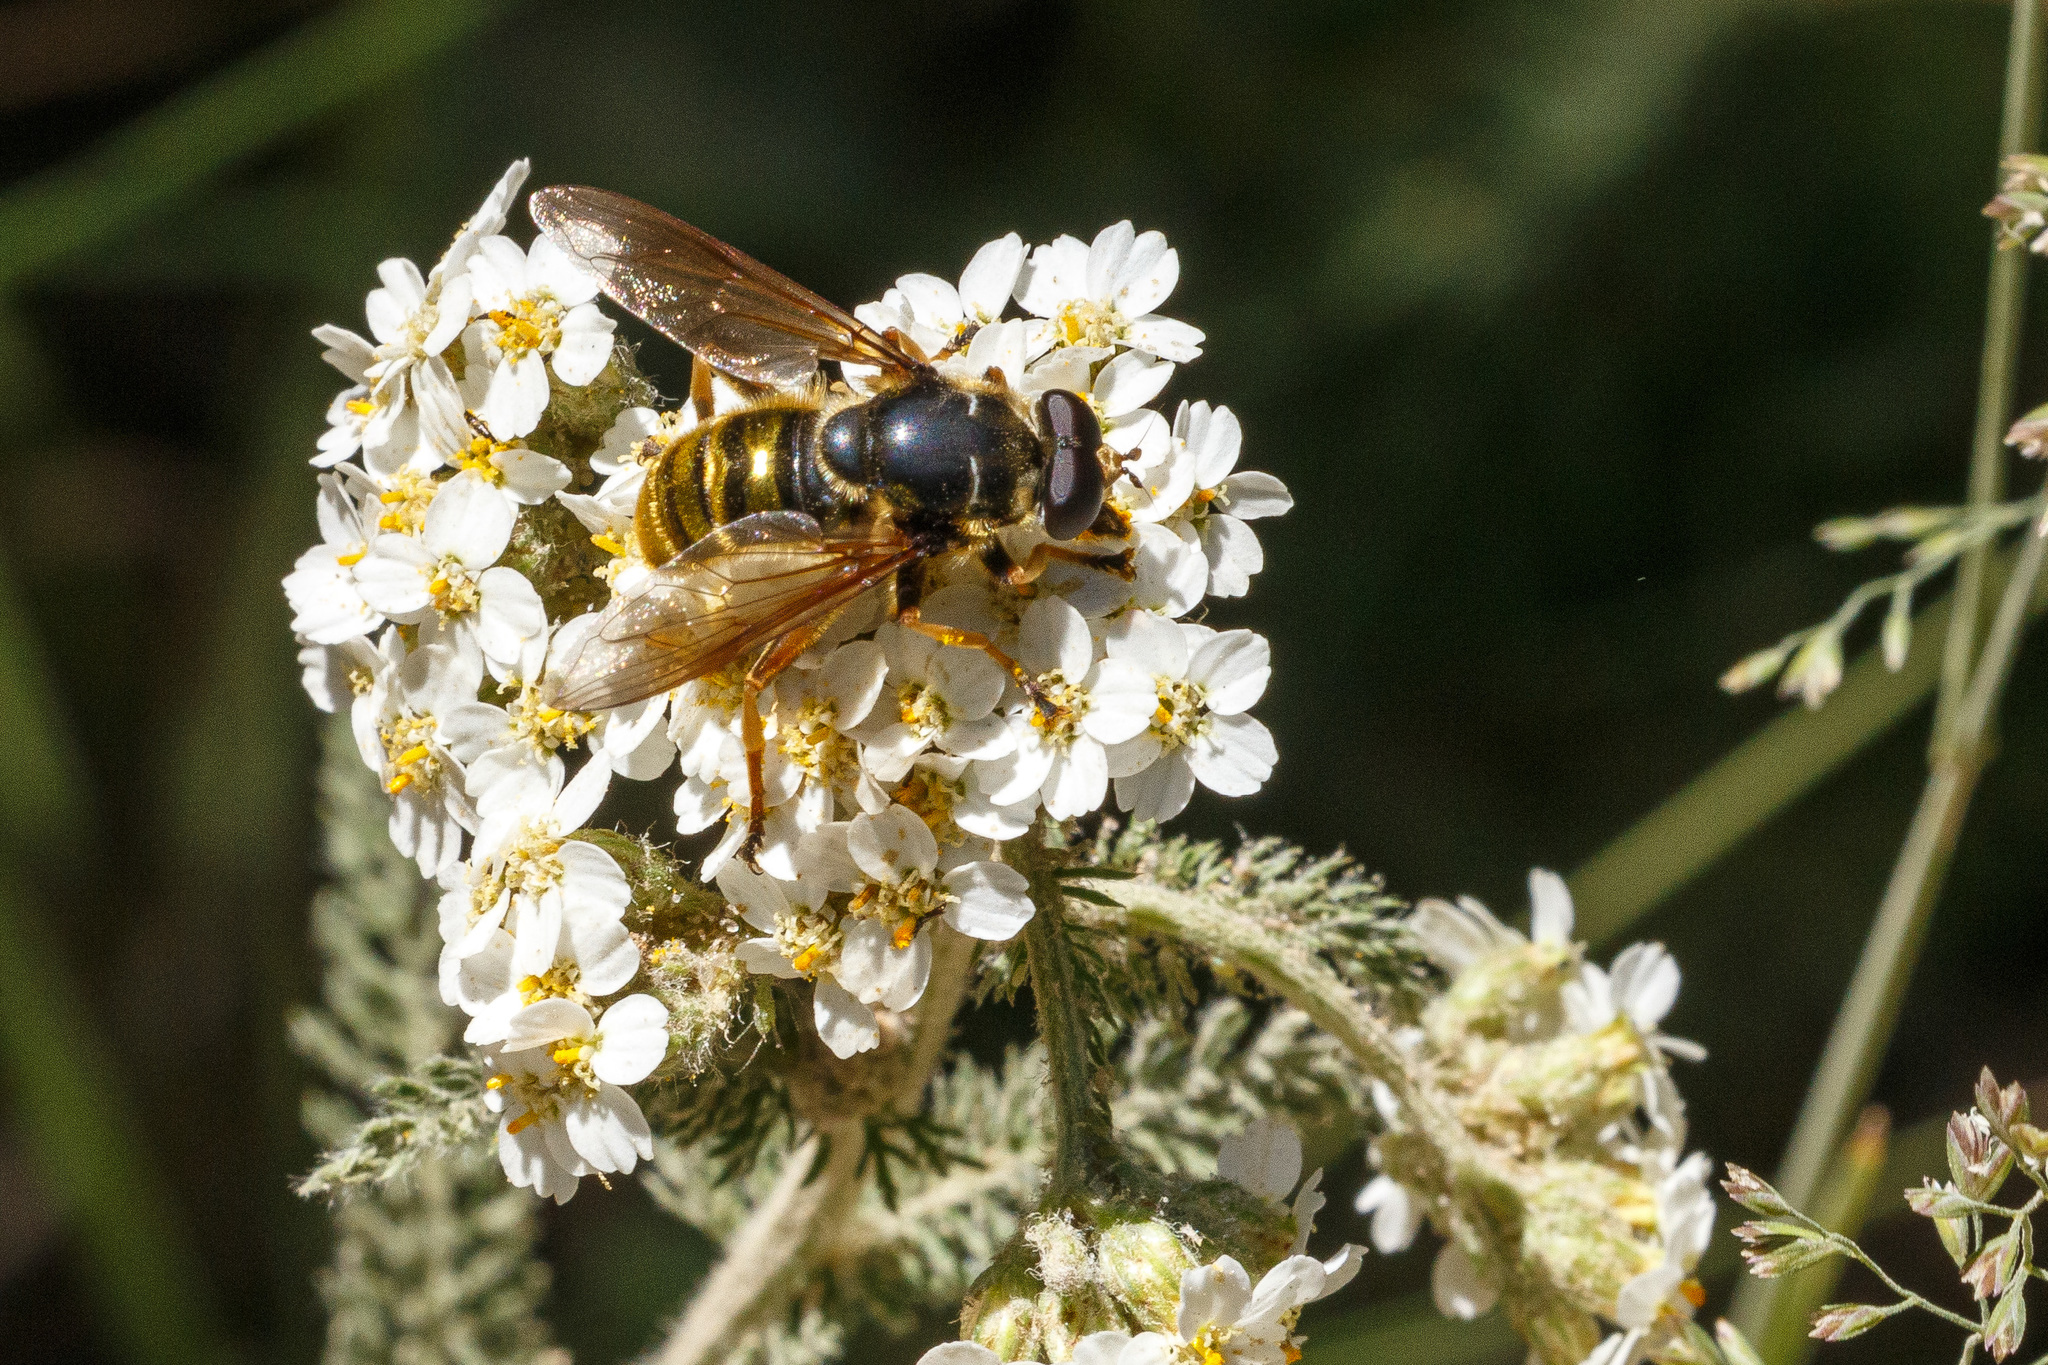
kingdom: Animalia
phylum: Arthropoda
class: Insecta
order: Diptera
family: Syrphidae
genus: Hadromyia
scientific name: Hadromyia pulchra
